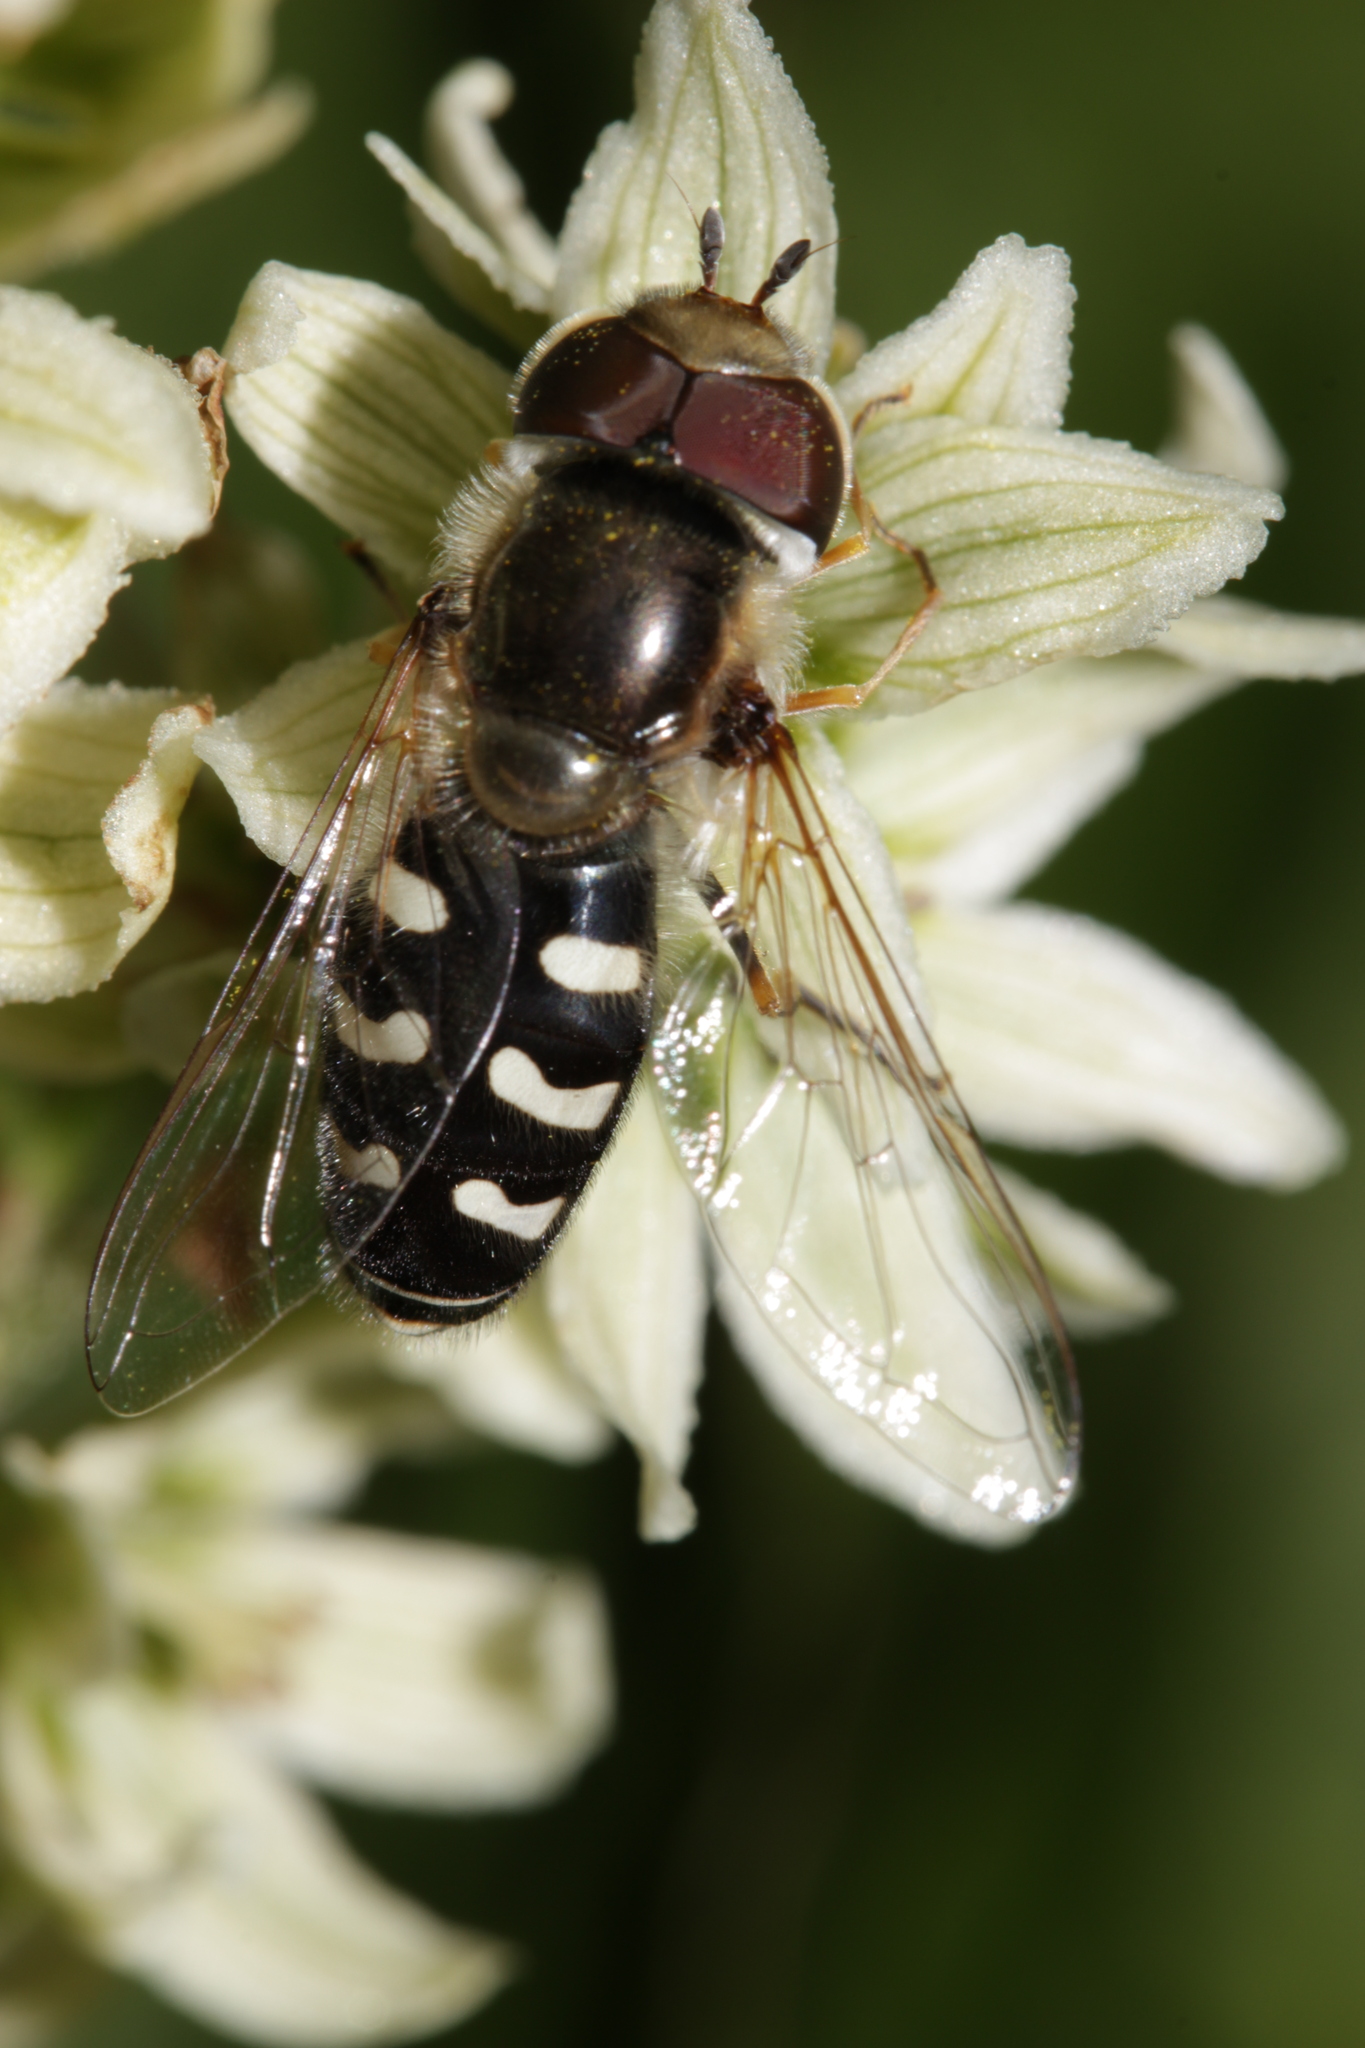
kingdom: Animalia
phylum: Arthropoda
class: Insecta
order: Diptera
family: Syrphidae
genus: Scaeva
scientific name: Scaeva pyrastri
